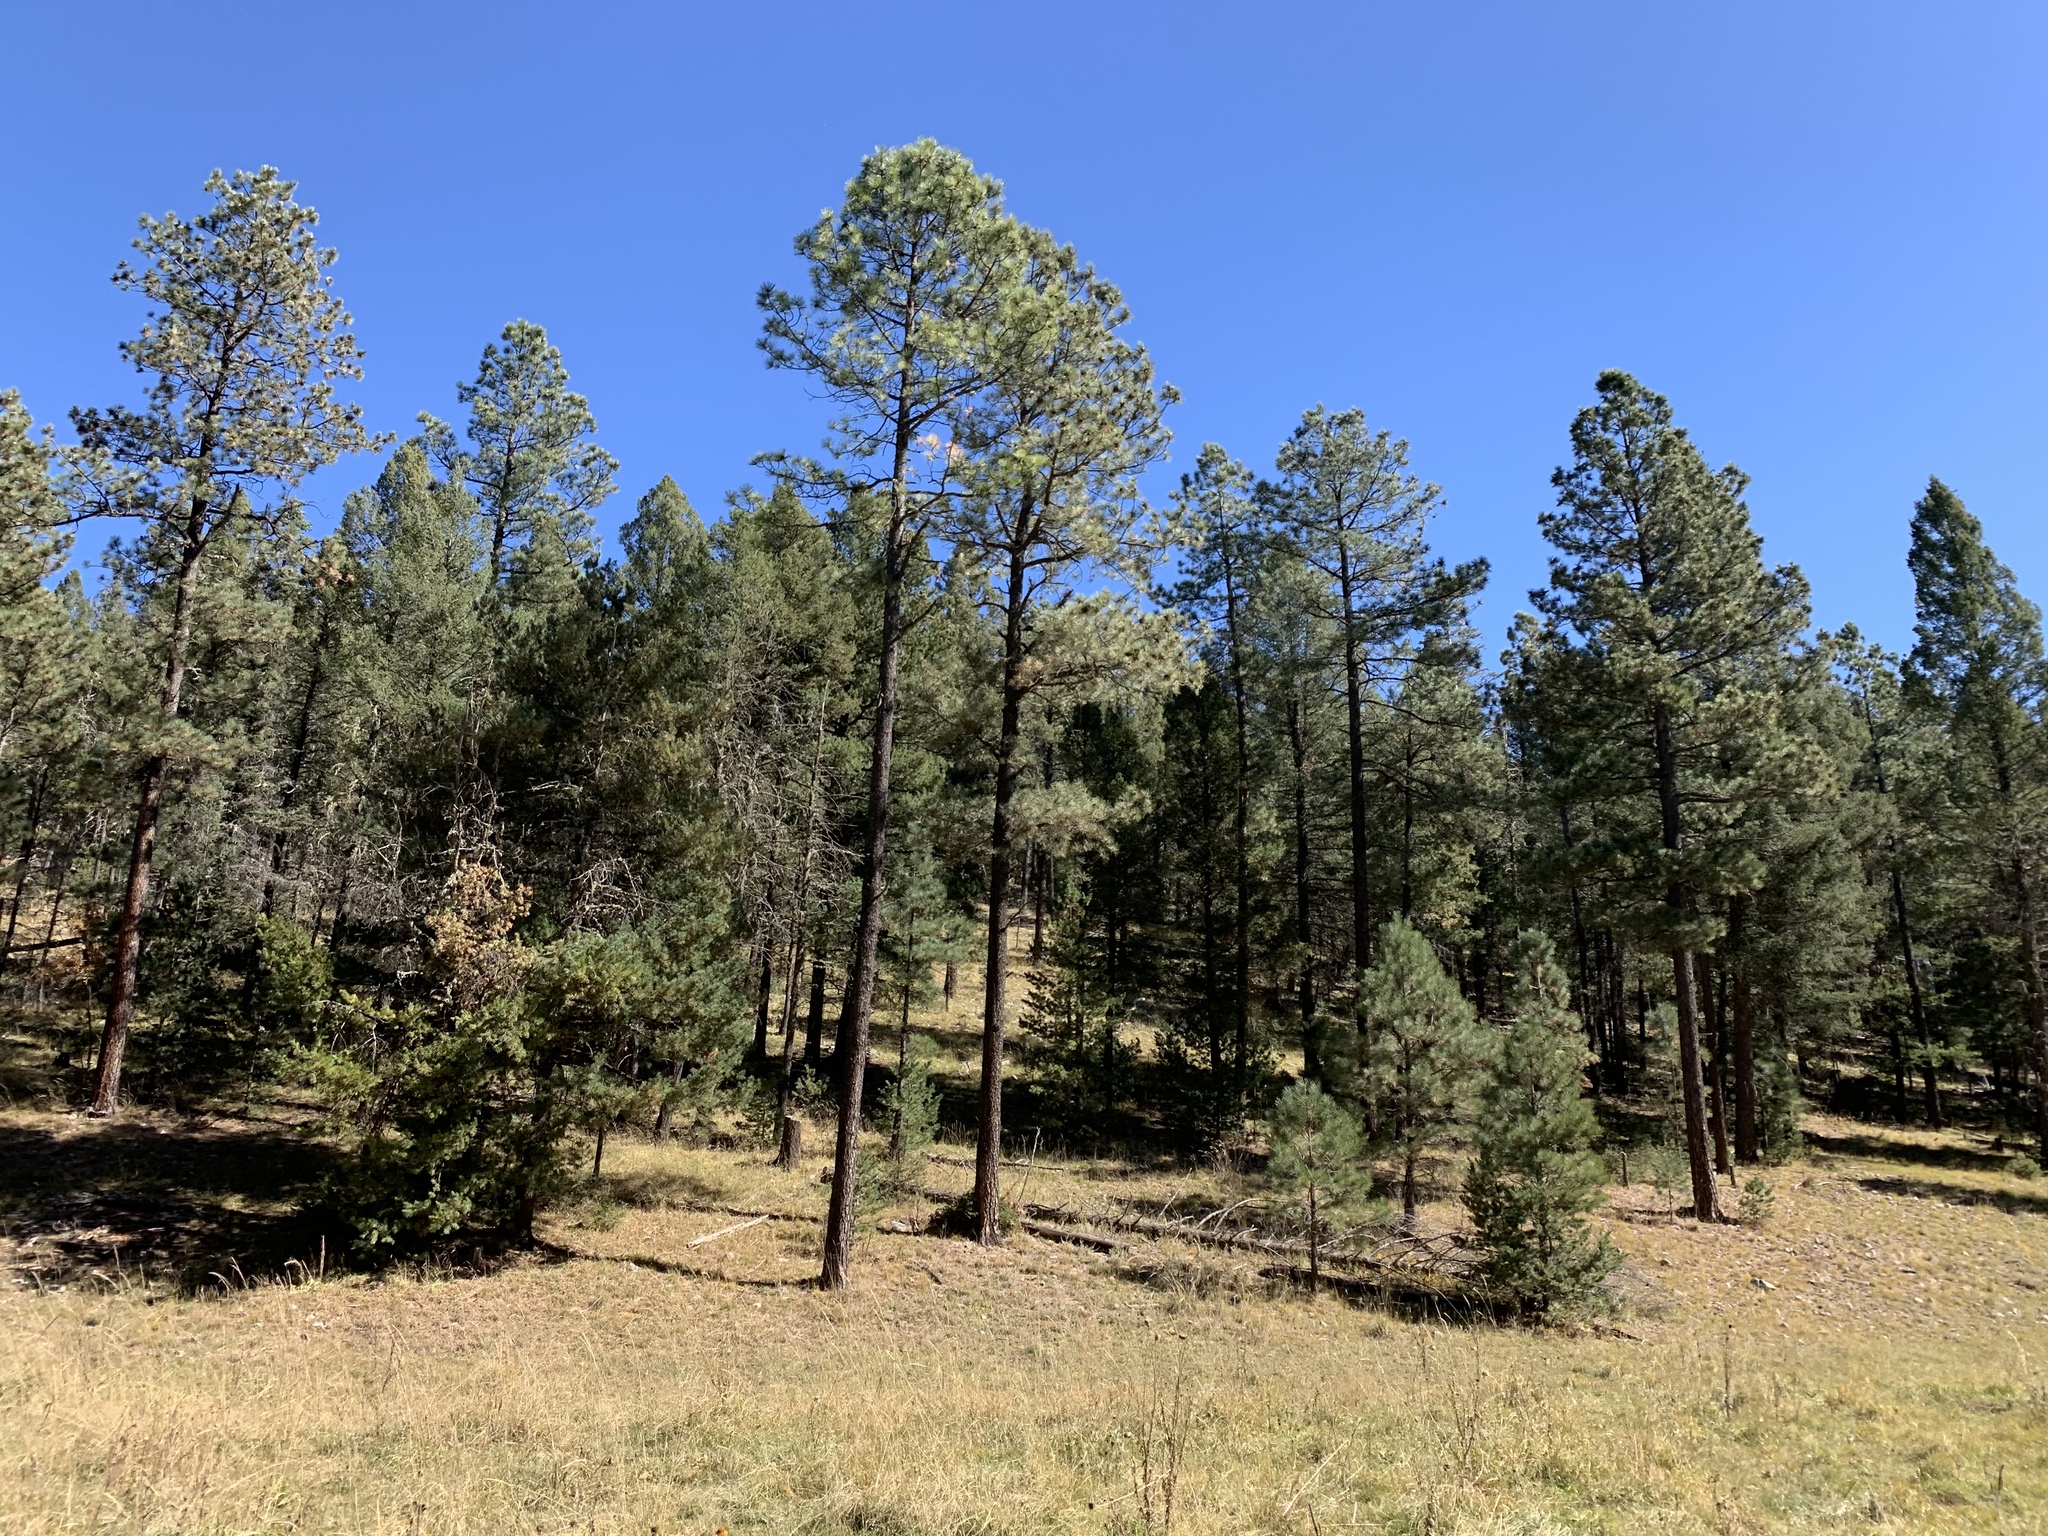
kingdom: Plantae
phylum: Tracheophyta
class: Pinopsida
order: Pinales
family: Pinaceae
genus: Pinus
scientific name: Pinus ponderosa
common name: Western yellow-pine
